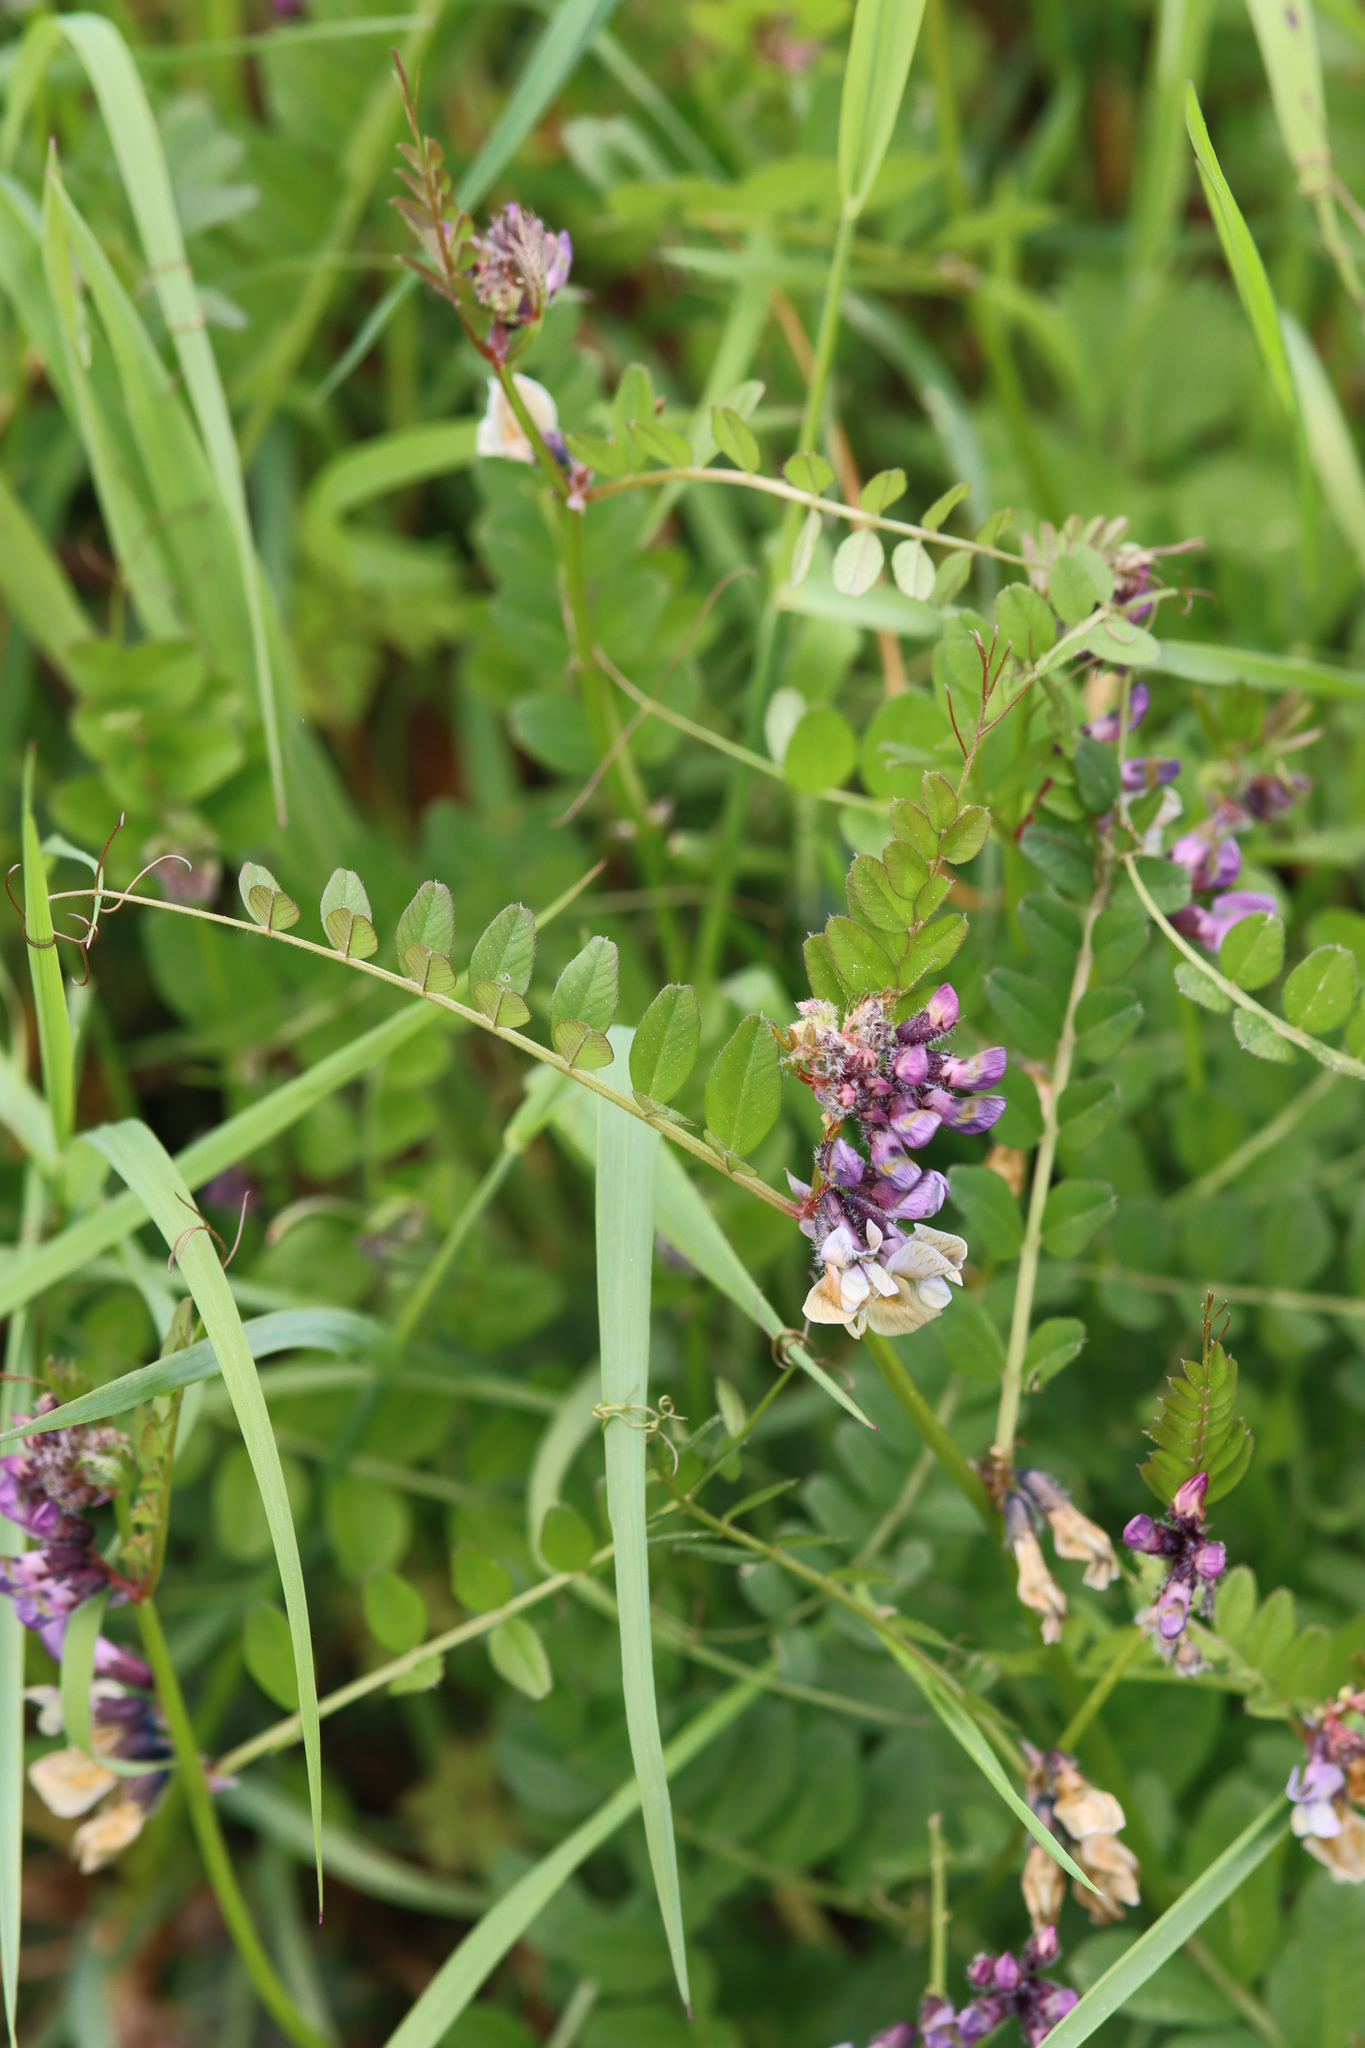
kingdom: Plantae
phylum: Tracheophyta
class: Magnoliopsida
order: Fabales
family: Fabaceae
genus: Vicia
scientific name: Vicia sepium
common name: Bush vetch
